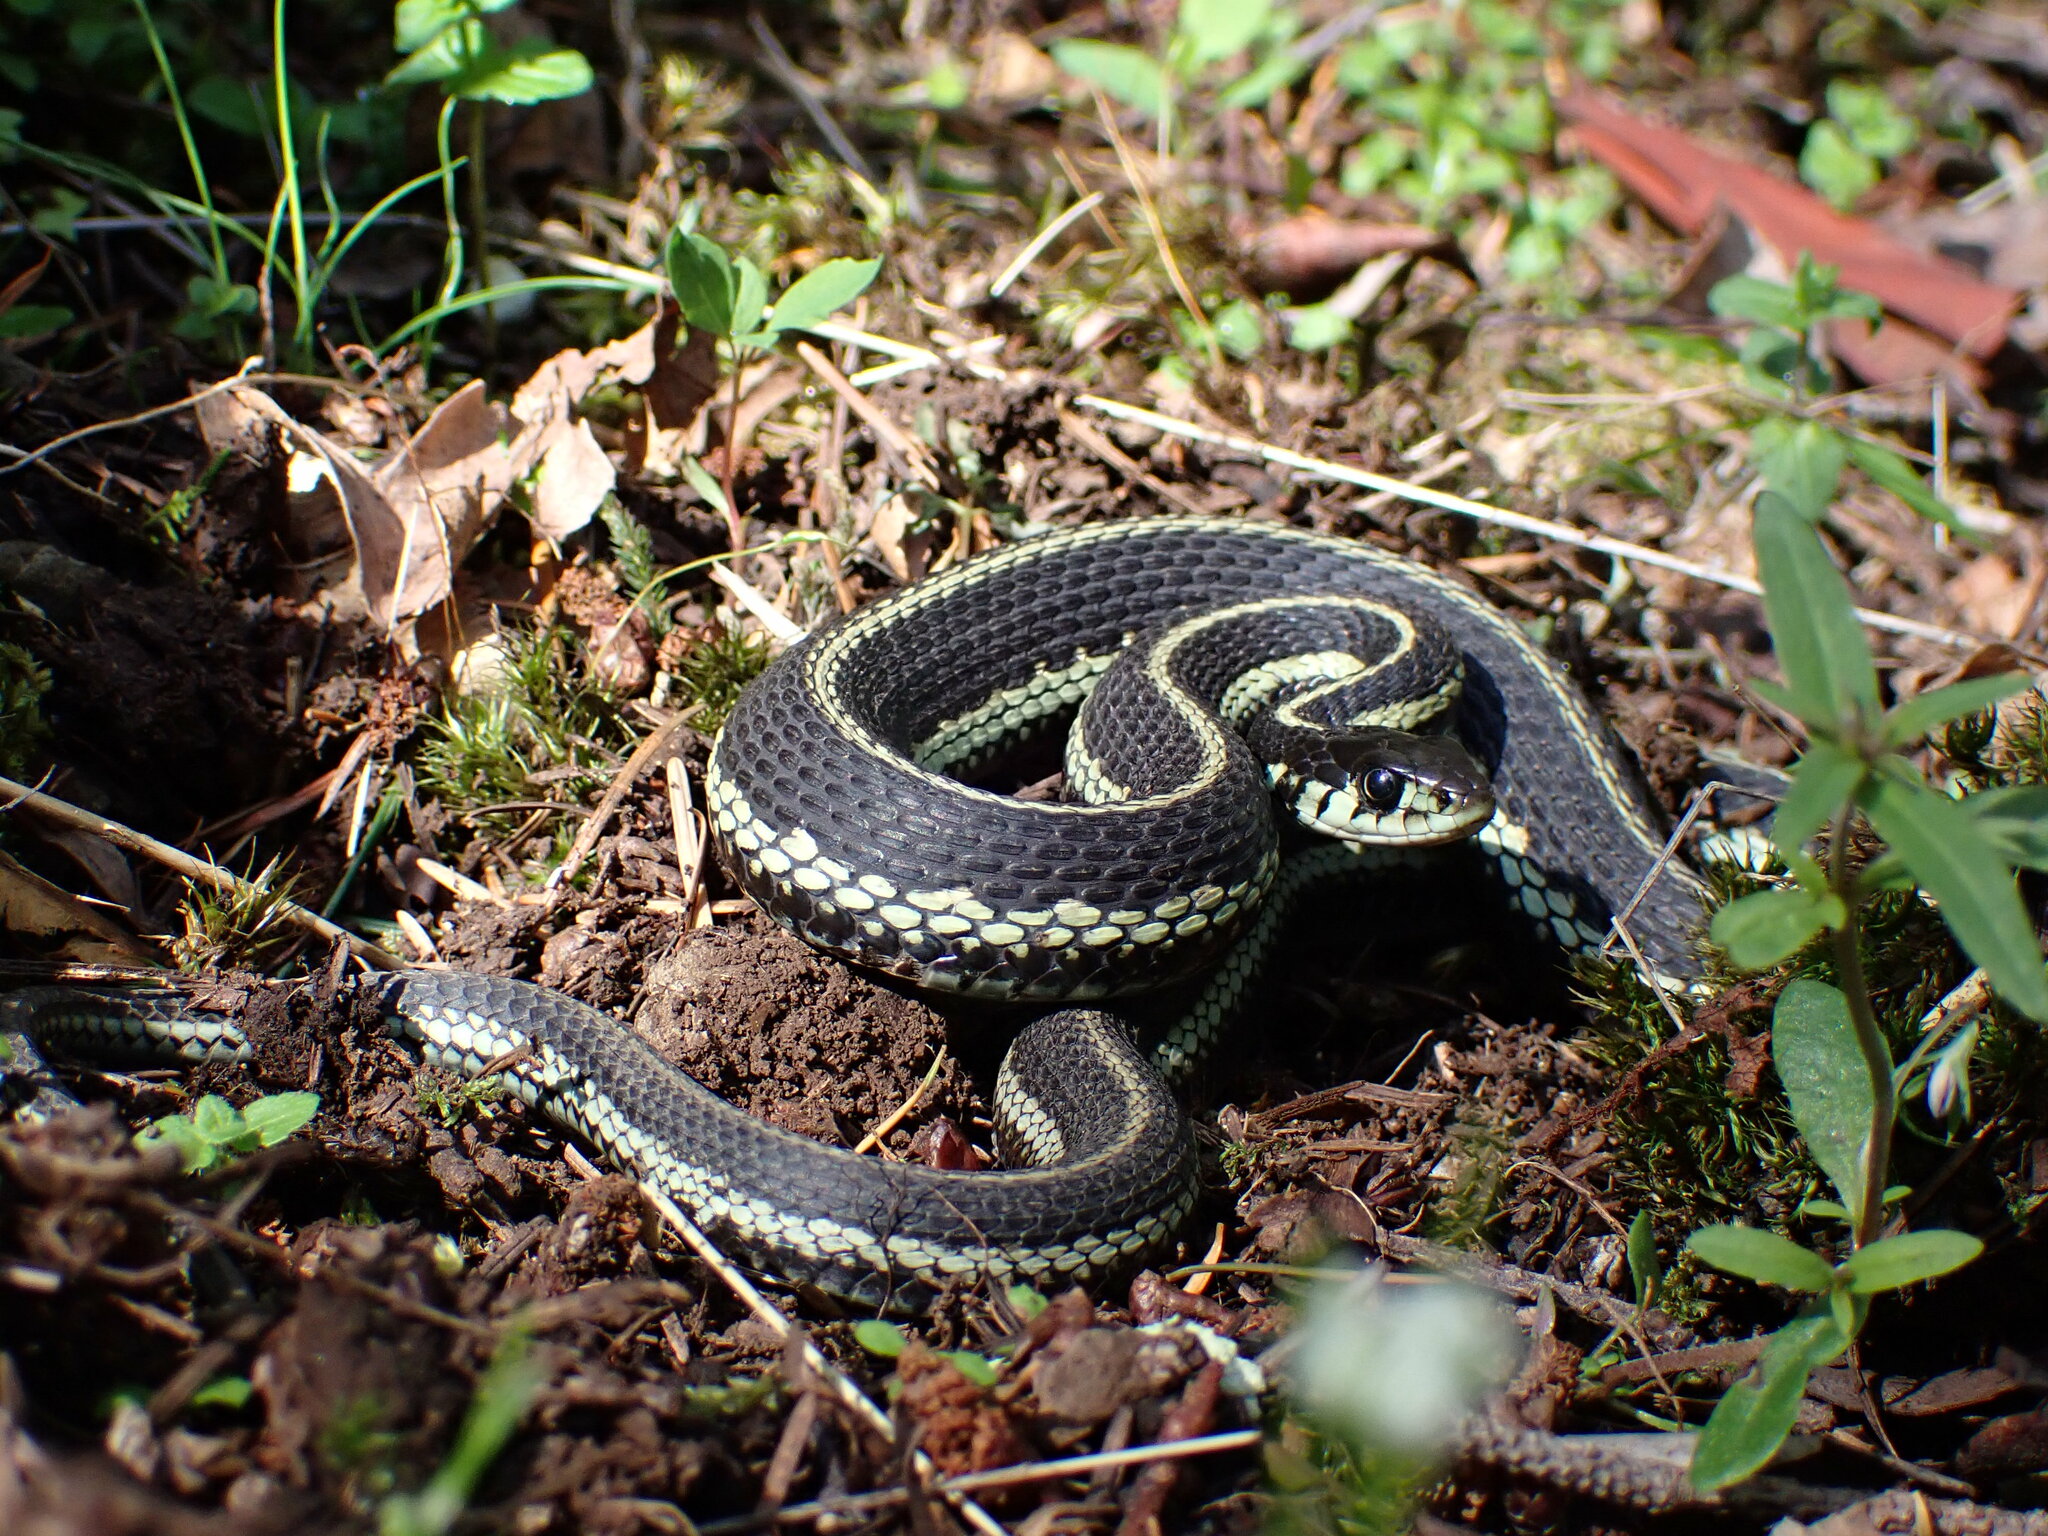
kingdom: Animalia
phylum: Chordata
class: Squamata
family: Colubridae
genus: Thamnophis
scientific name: Thamnophis sirtalis
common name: Common garter snake
